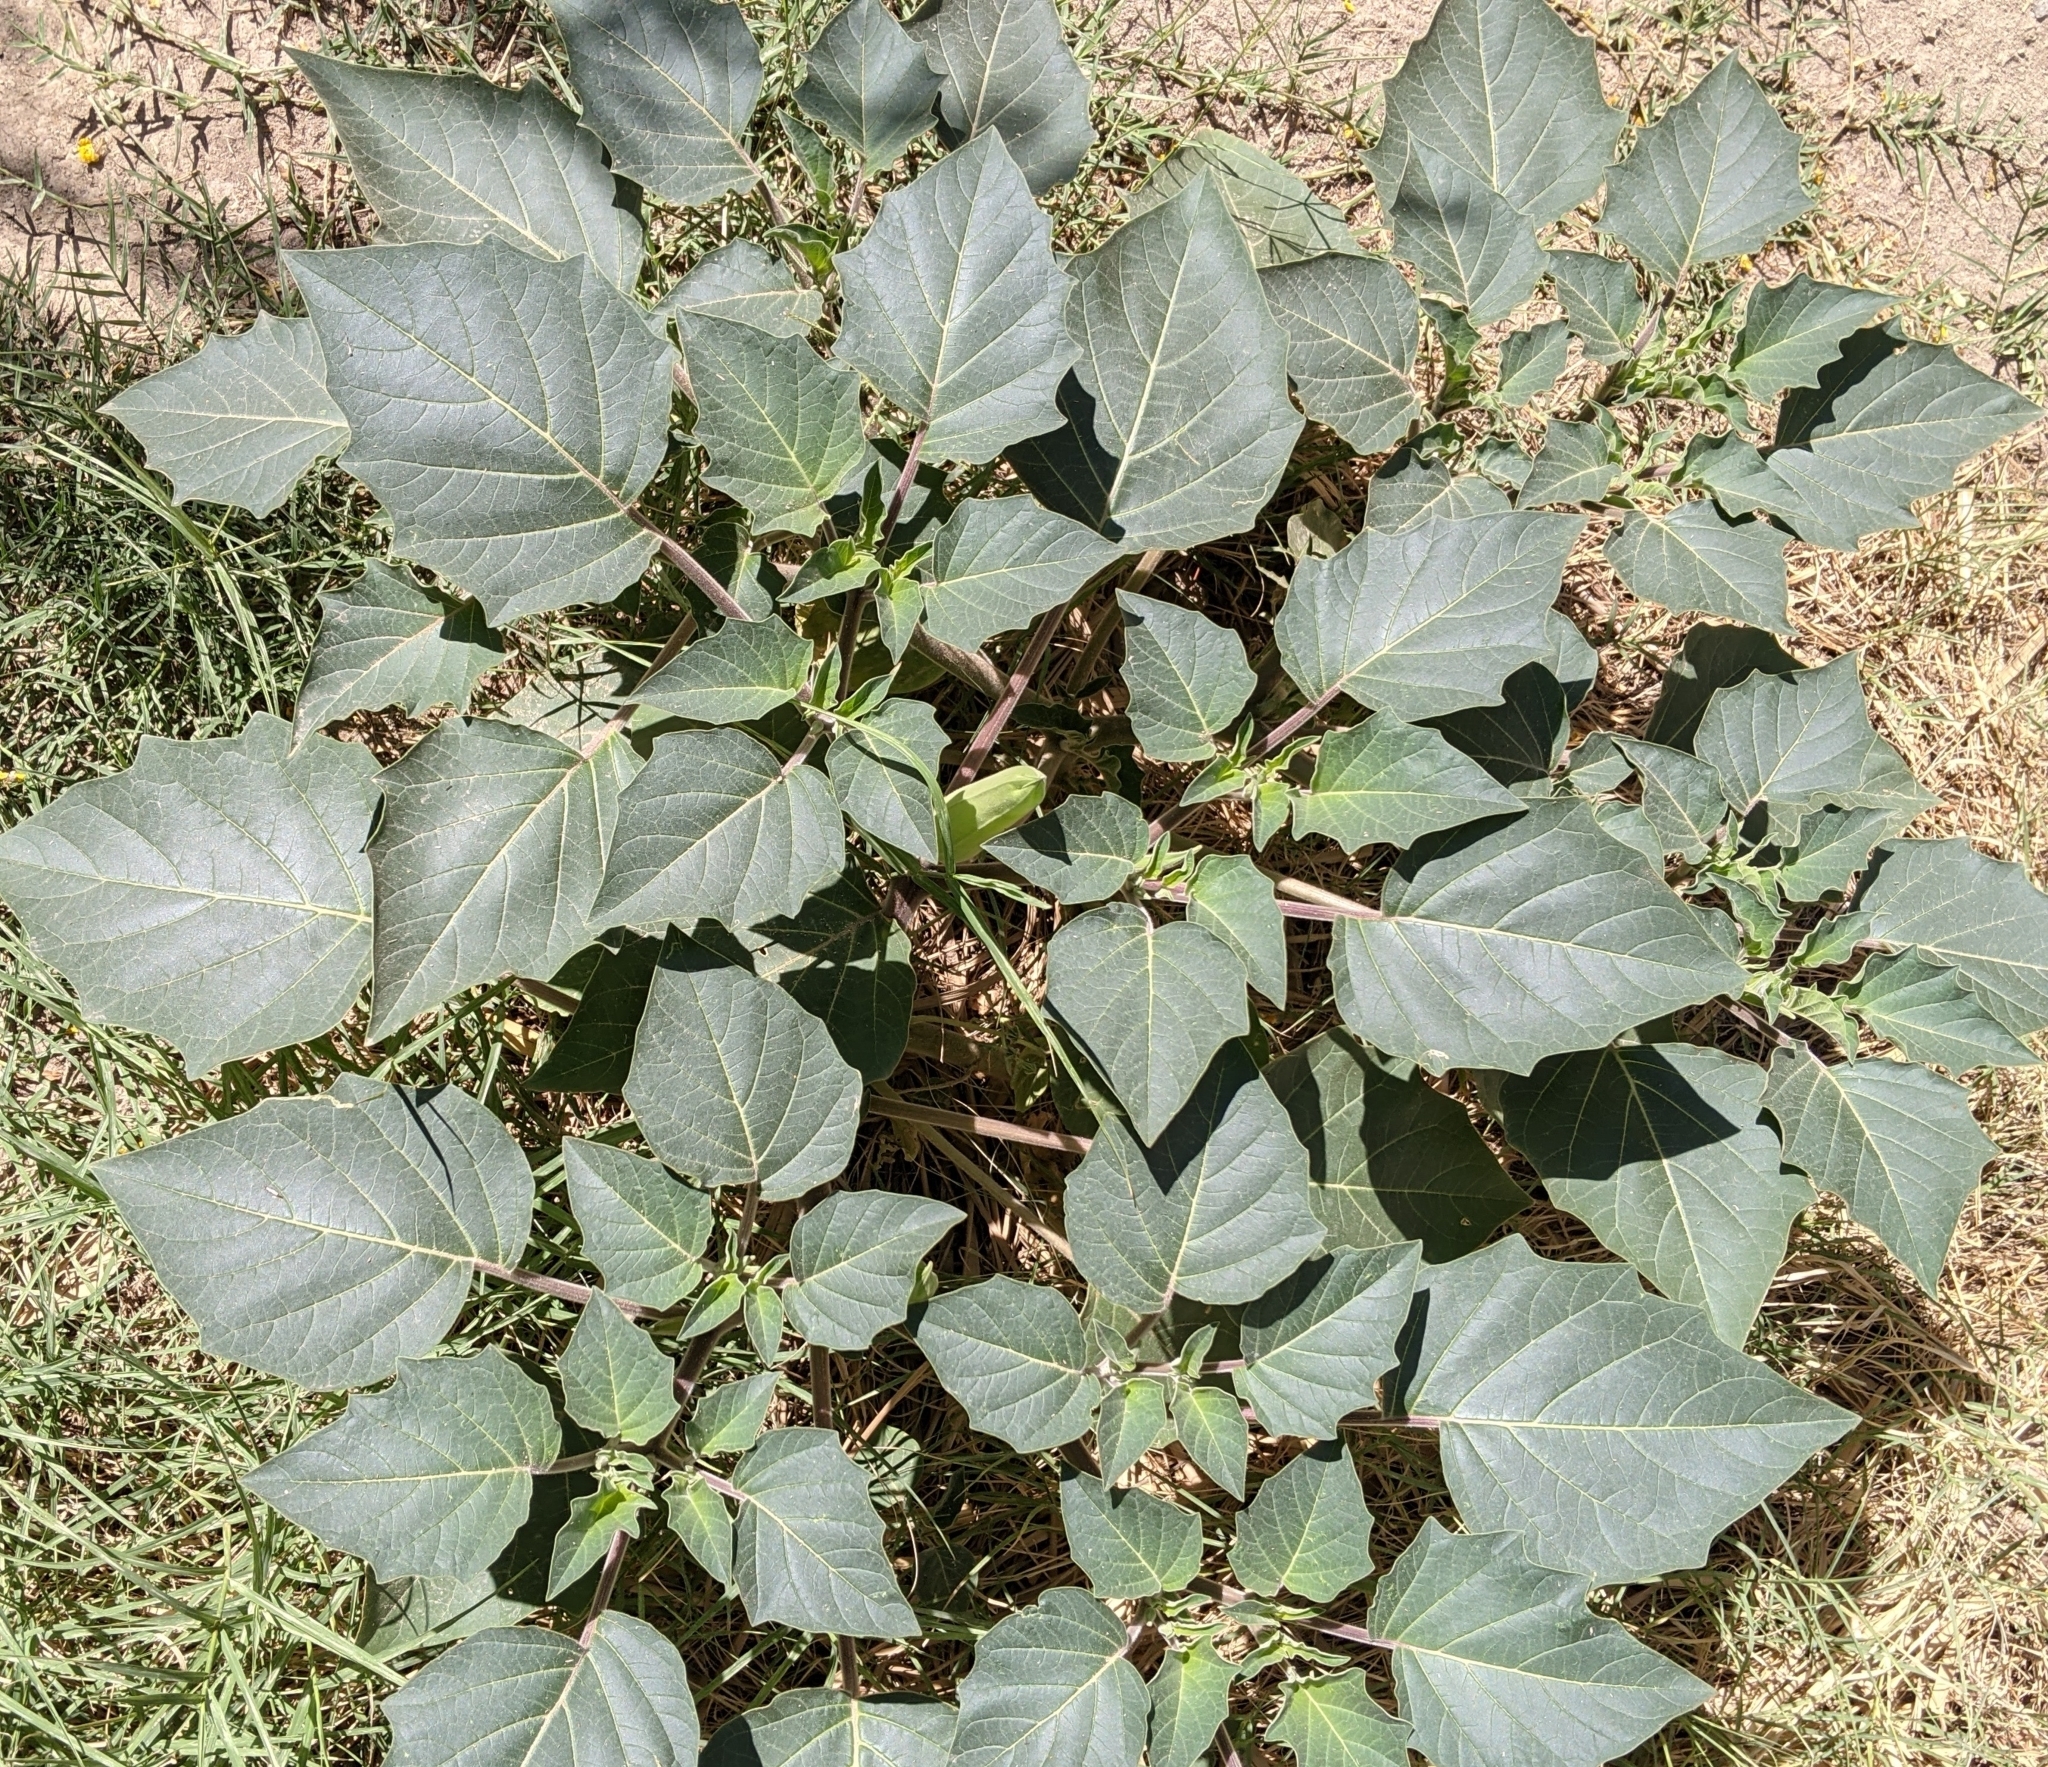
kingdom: Plantae
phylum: Tracheophyta
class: Magnoliopsida
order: Solanales
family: Solanaceae
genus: Datura
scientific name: Datura wrightii
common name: Sacred thorn-apple
